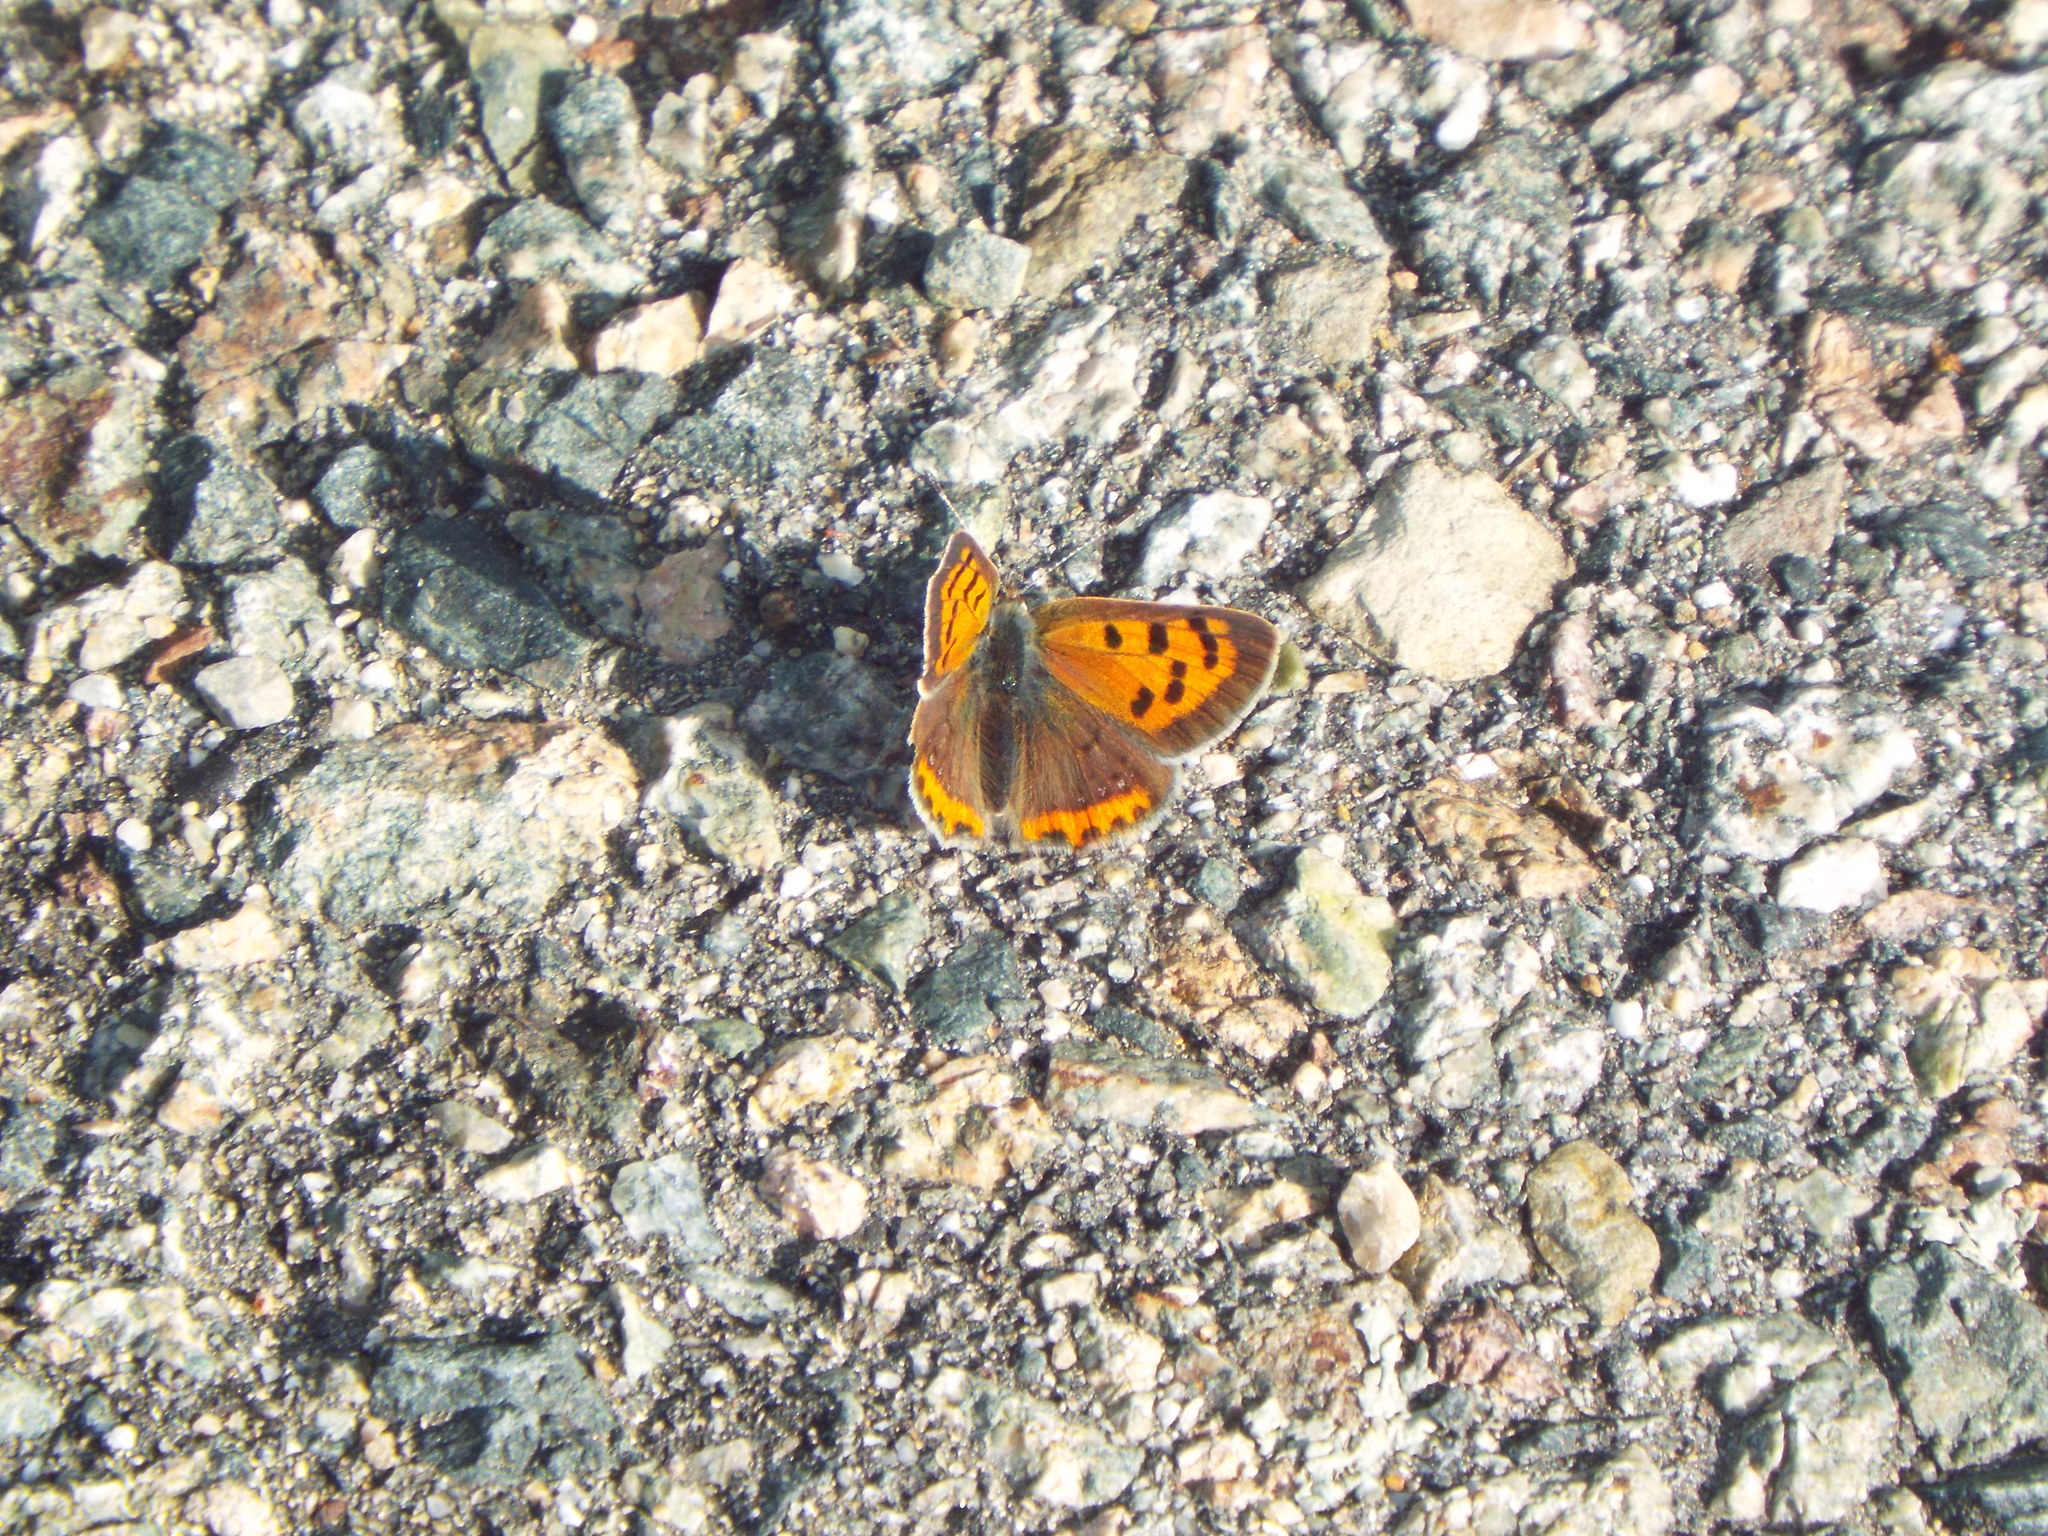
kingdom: Animalia
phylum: Arthropoda
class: Insecta
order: Lepidoptera
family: Lycaenidae
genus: Lycaena
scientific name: Lycaena hypophlaeas
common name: American copper
